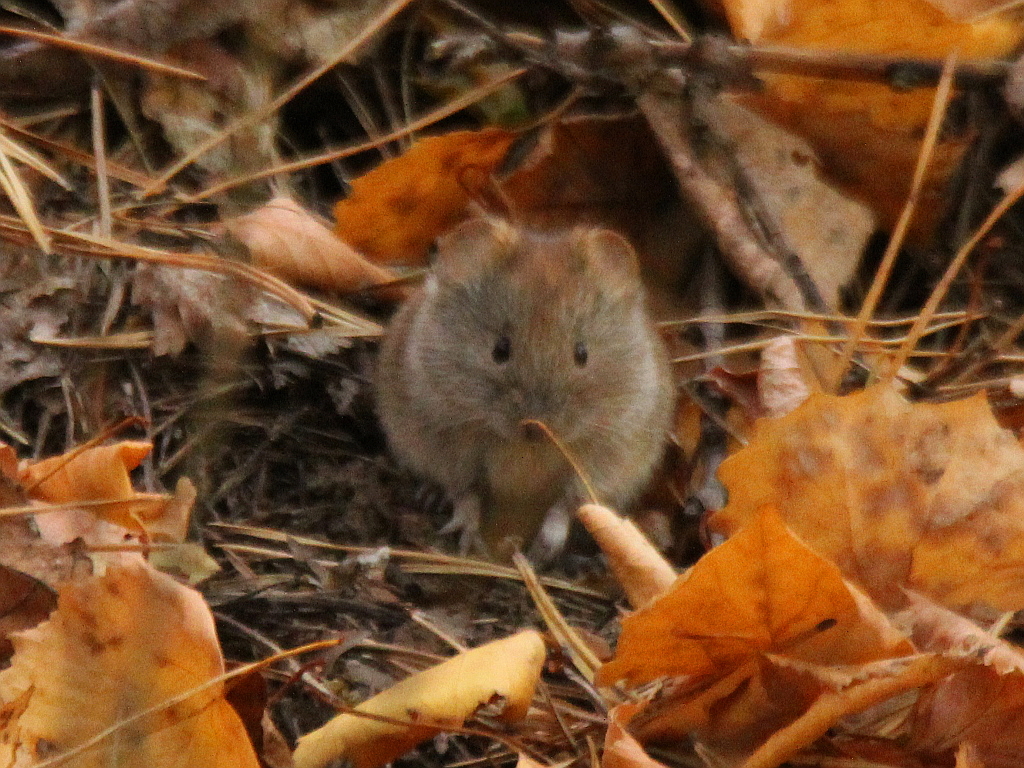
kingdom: Animalia
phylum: Chordata
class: Mammalia
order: Rodentia
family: Cricetidae
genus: Myodes
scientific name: Myodes rutilus
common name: Northern red-backed vole
